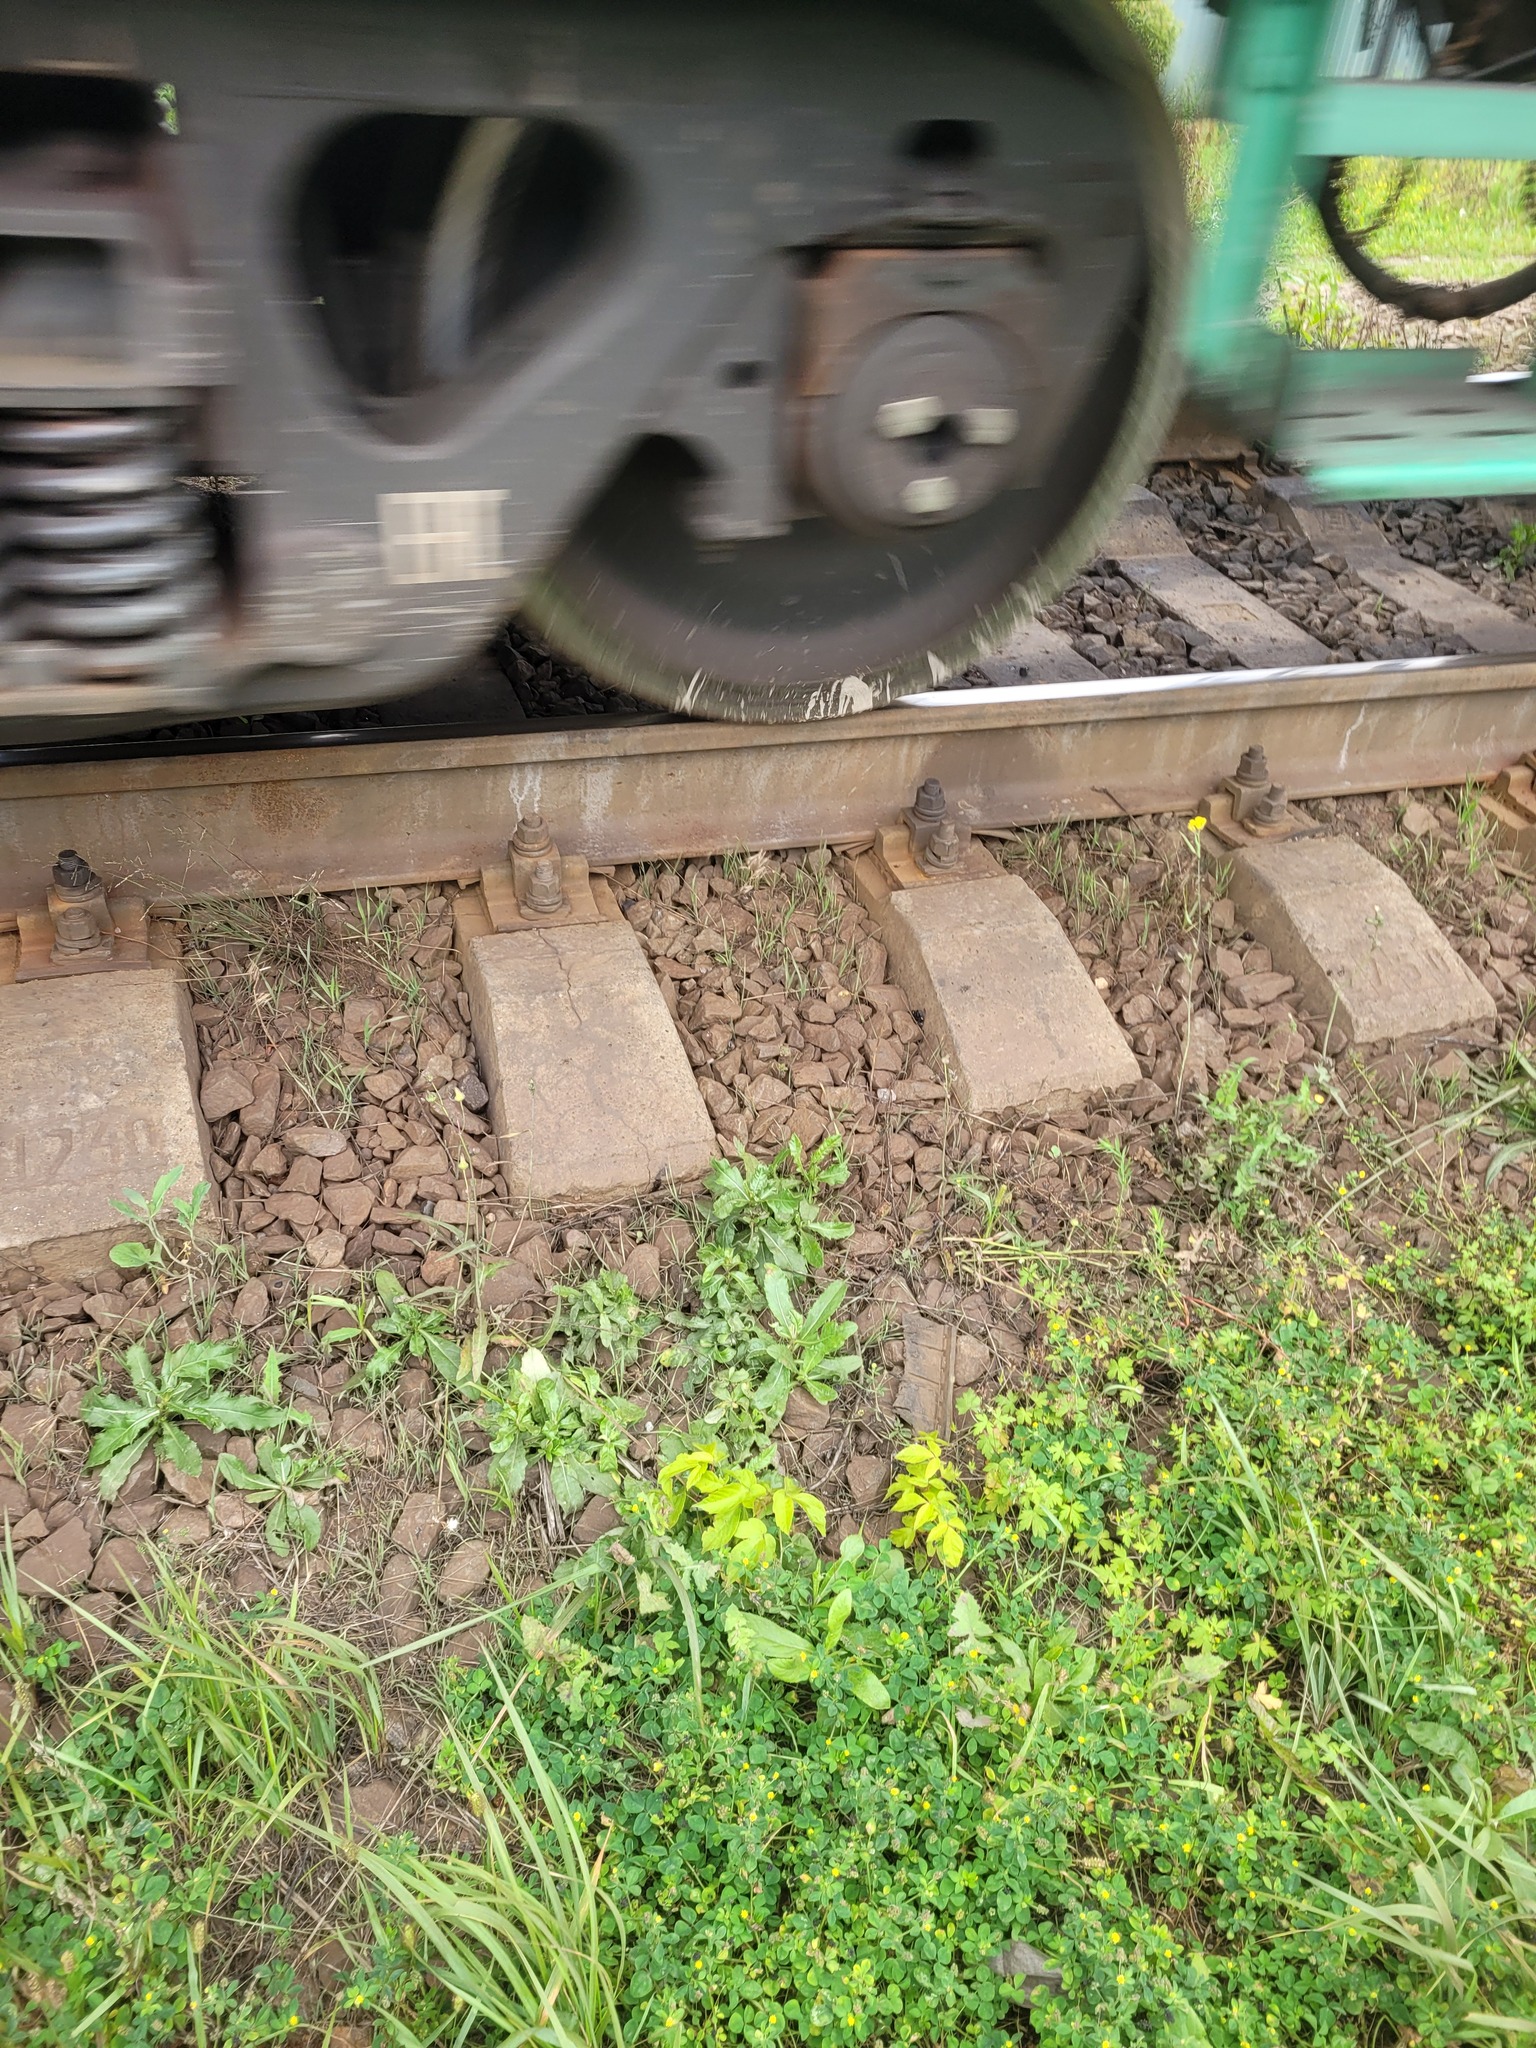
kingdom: Plantae
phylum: Tracheophyta
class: Magnoliopsida
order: Sapindales
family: Sapindaceae
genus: Acer
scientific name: Acer negundo
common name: Ashleaf maple
